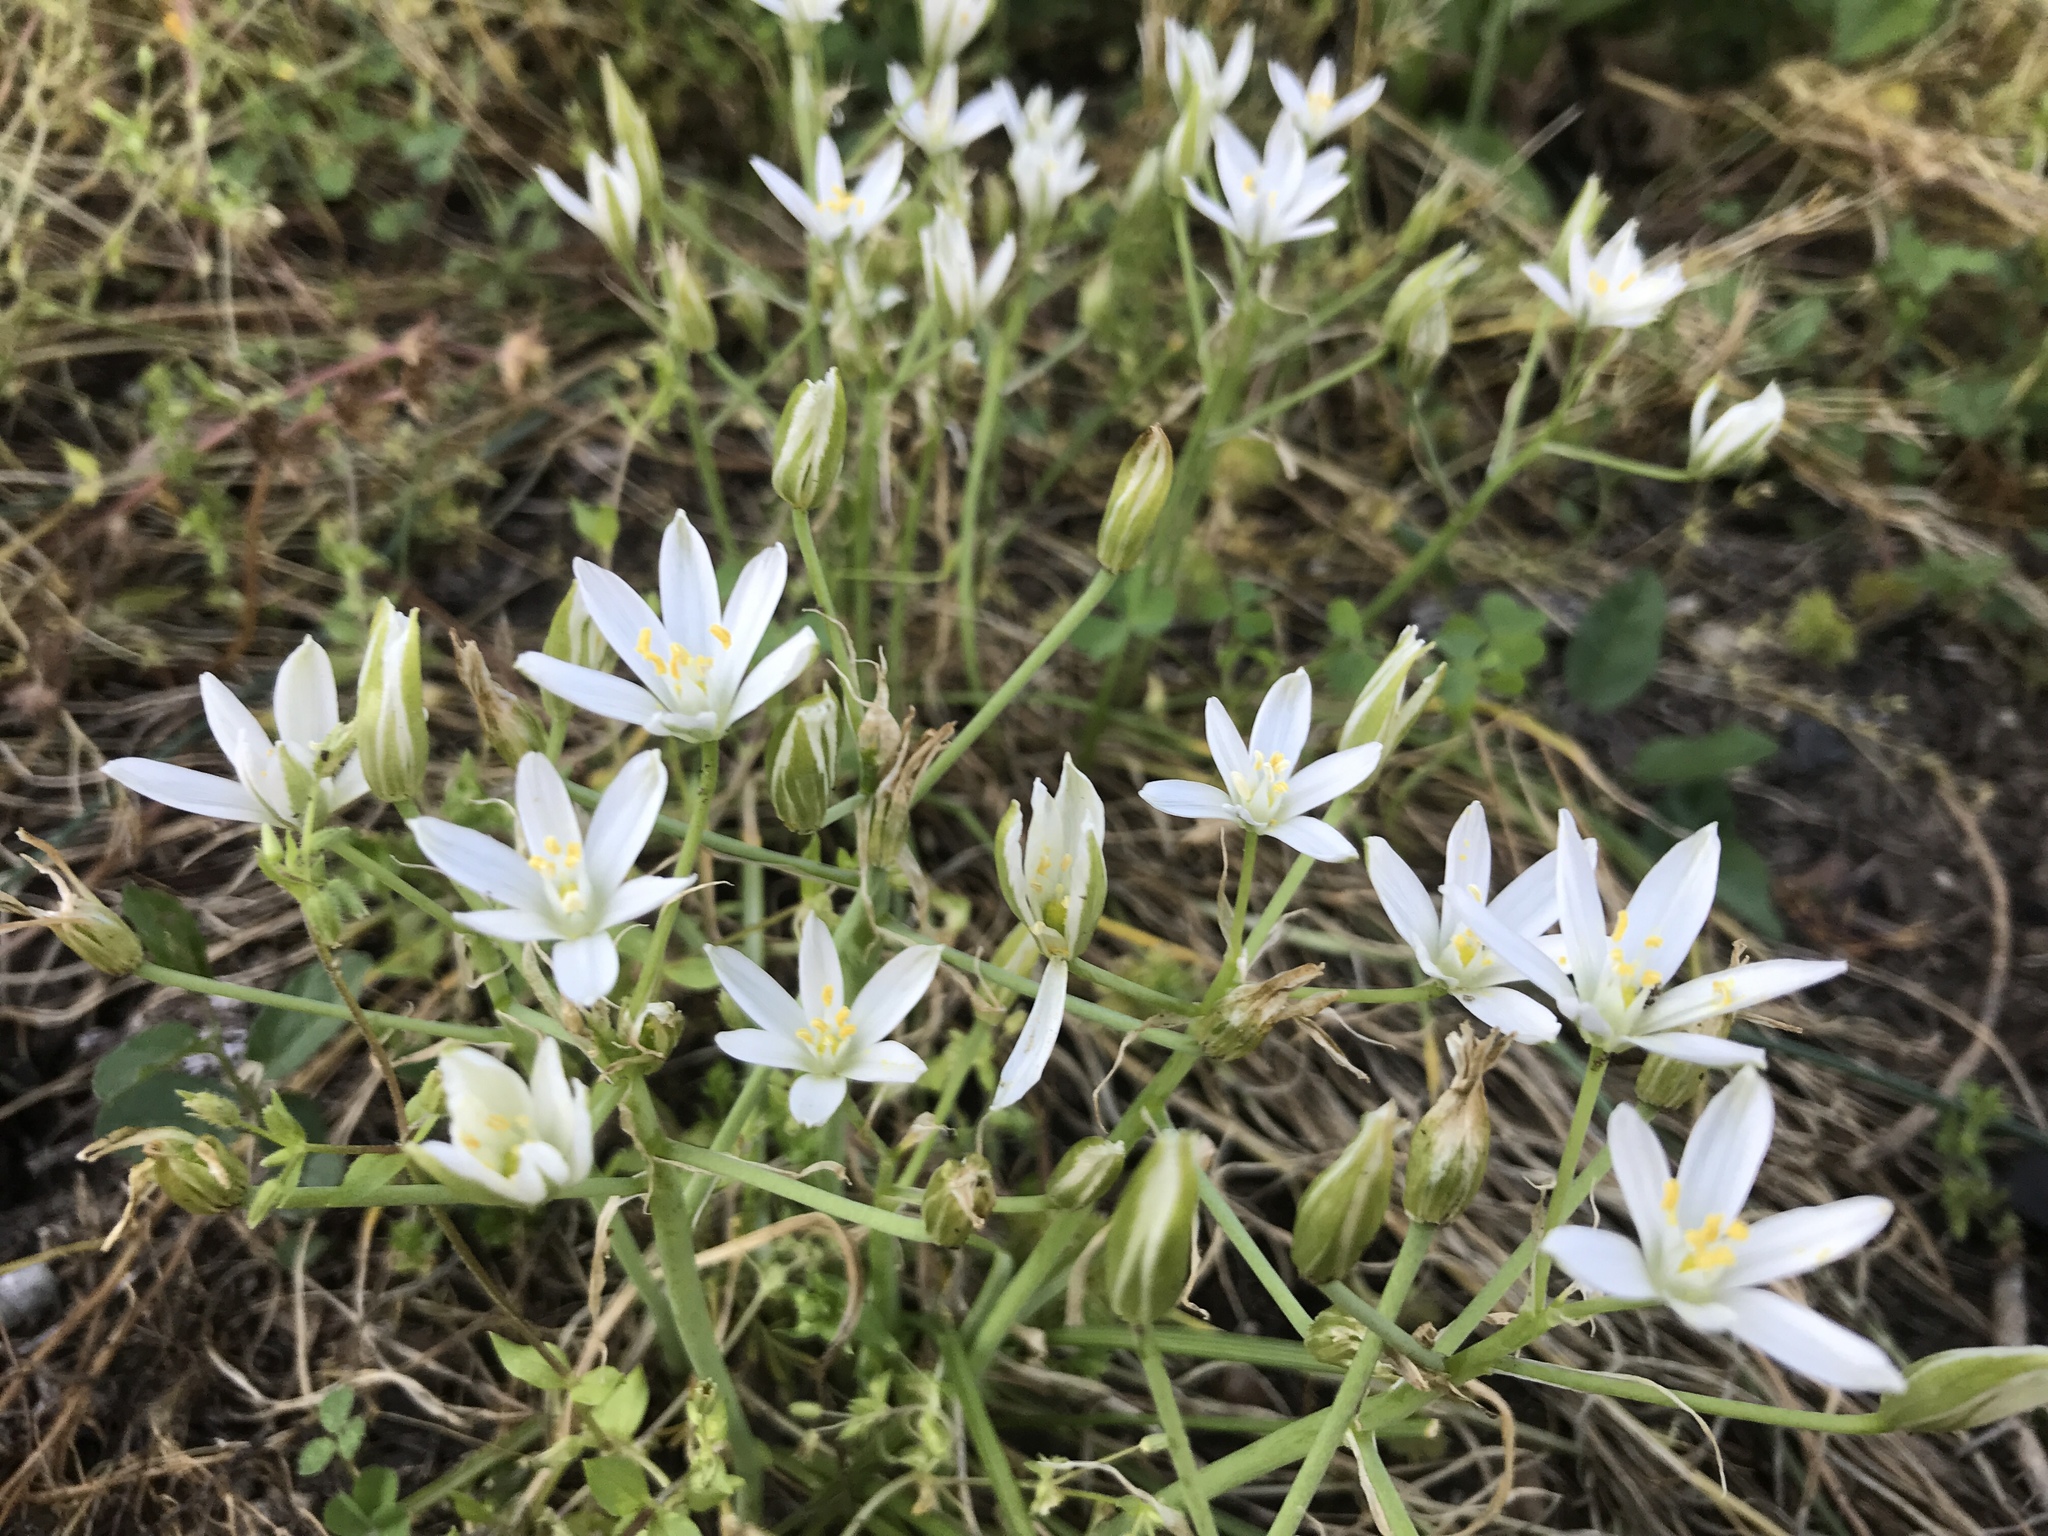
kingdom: Plantae
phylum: Tracheophyta
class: Liliopsida
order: Asparagales
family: Asparagaceae
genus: Ornithogalum
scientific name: Ornithogalum umbellatum
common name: Garden star-of-bethlehem
